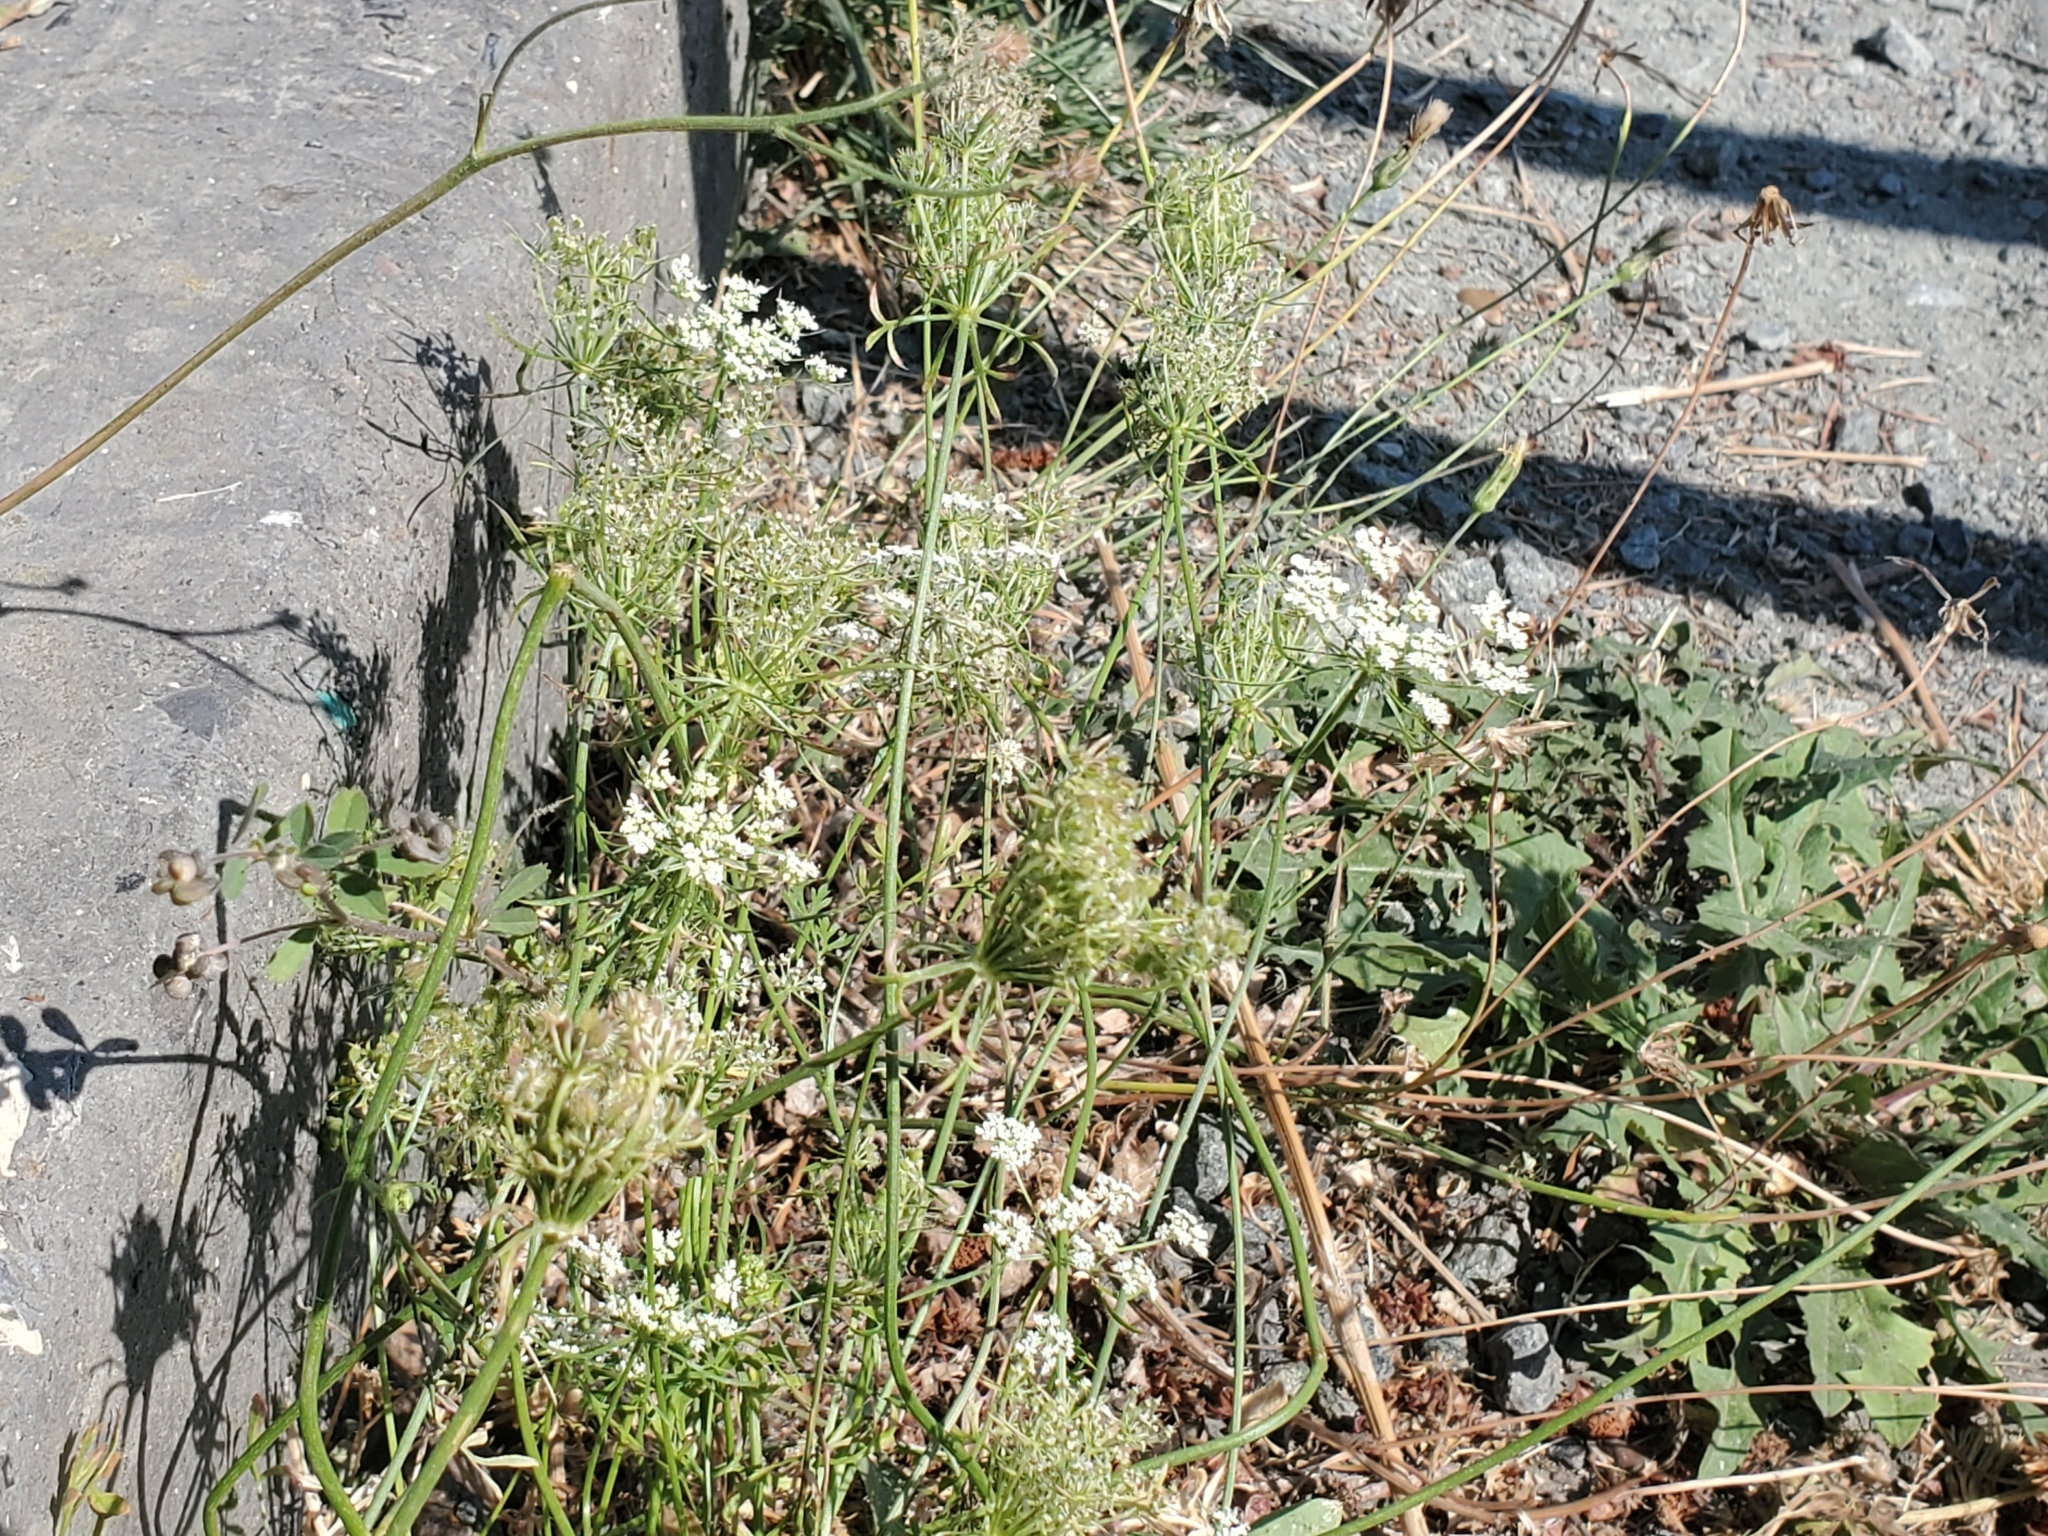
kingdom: Plantae
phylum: Tracheophyta
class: Magnoliopsida
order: Apiales
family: Apiaceae
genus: Daucus
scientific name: Daucus carota
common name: Wild carrot
